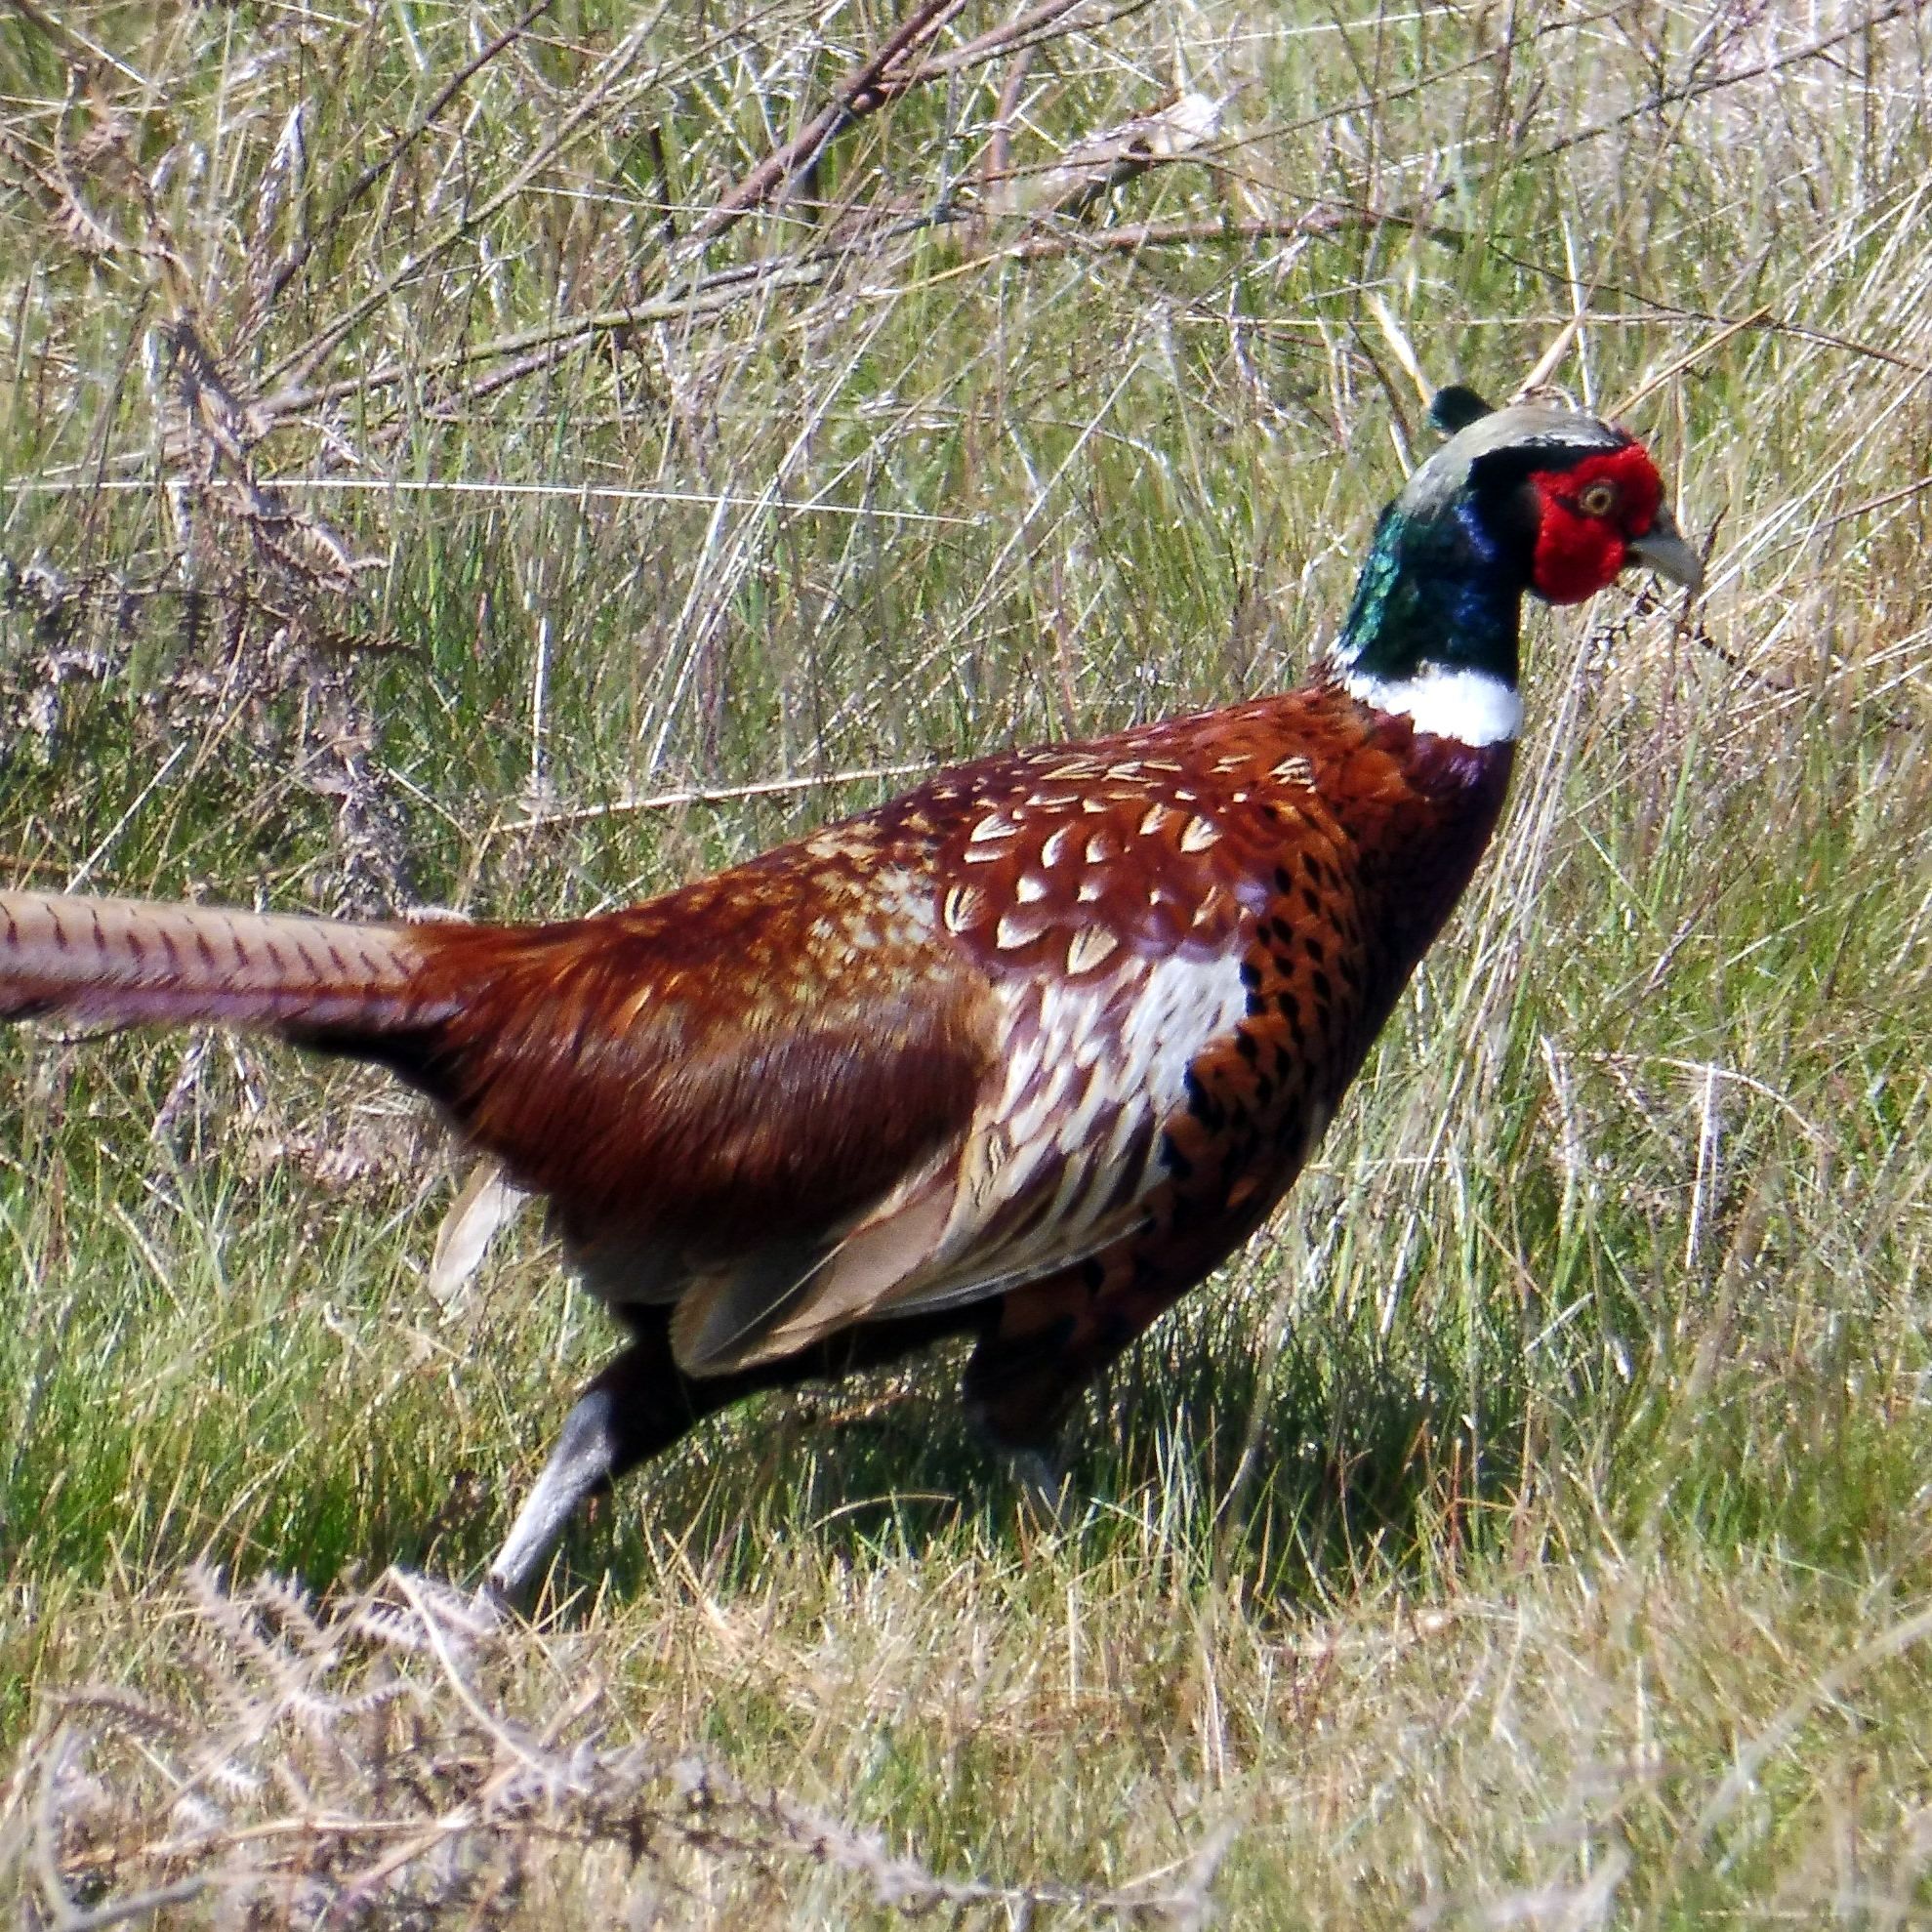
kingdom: Animalia
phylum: Chordata
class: Aves
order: Galliformes
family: Phasianidae
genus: Phasianus
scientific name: Phasianus colchicus
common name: Common pheasant
